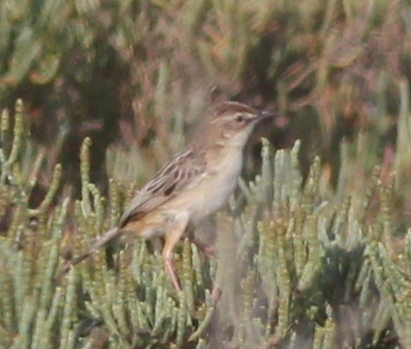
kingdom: Animalia
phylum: Chordata
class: Aves
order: Passeriformes
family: Cisticolidae
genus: Cisticola
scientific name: Cisticola juncidis
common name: Zitting cisticola
